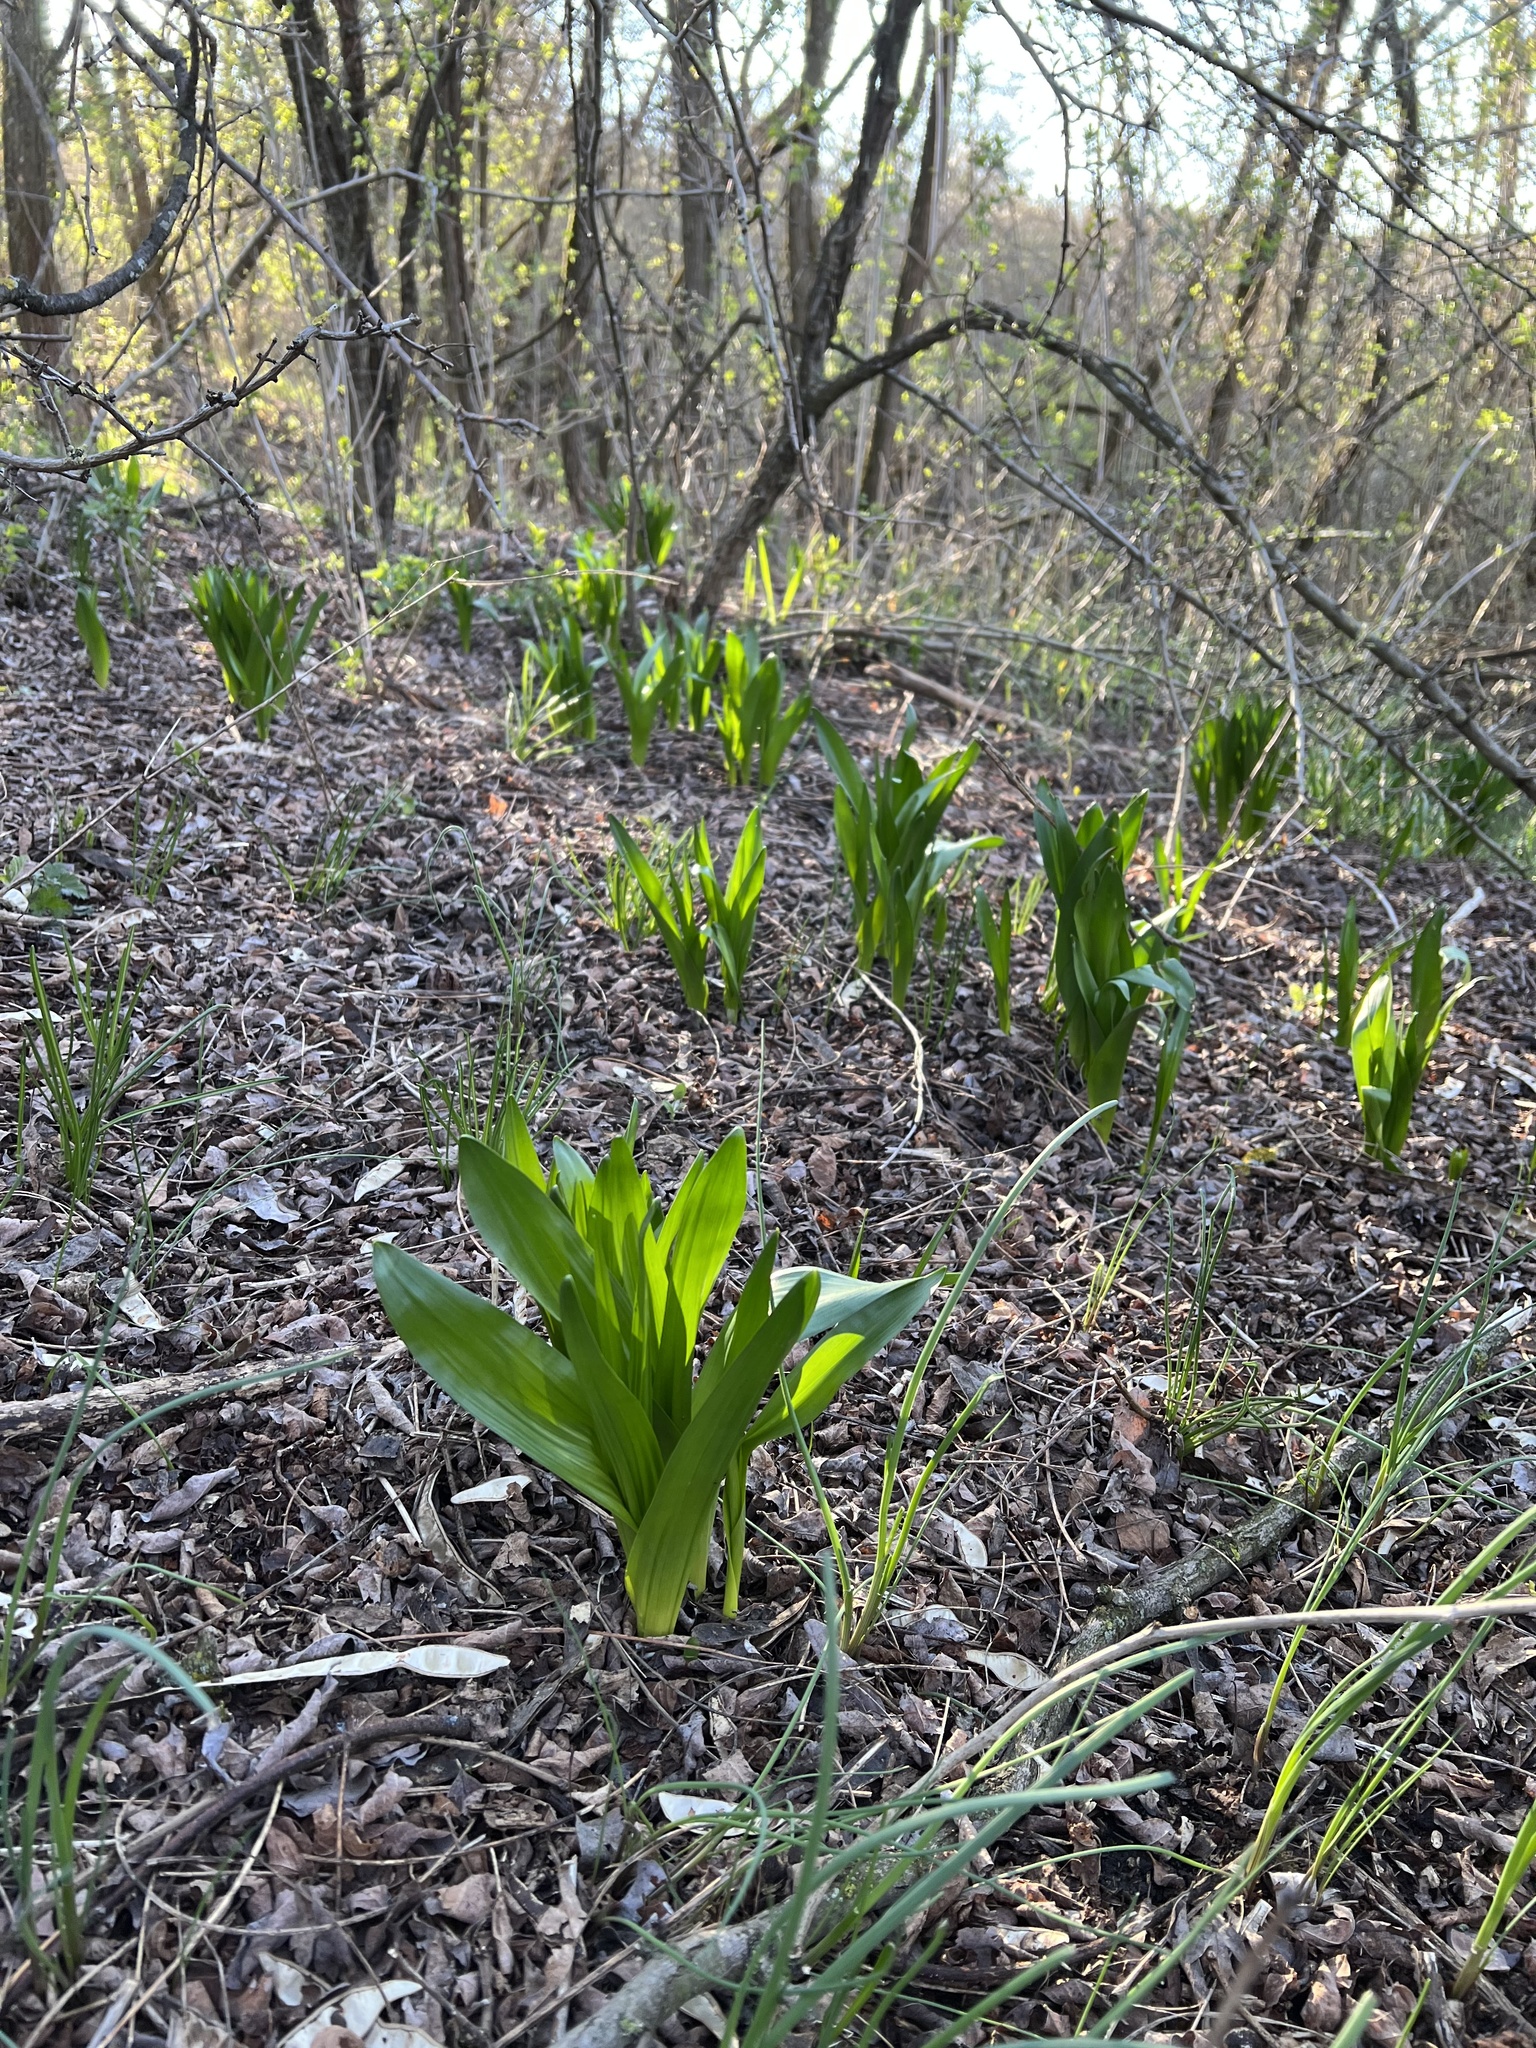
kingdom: Plantae
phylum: Tracheophyta
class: Liliopsida
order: Liliales
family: Colchicaceae
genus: Colchicum
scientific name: Colchicum autumnale
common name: Autumn crocus
